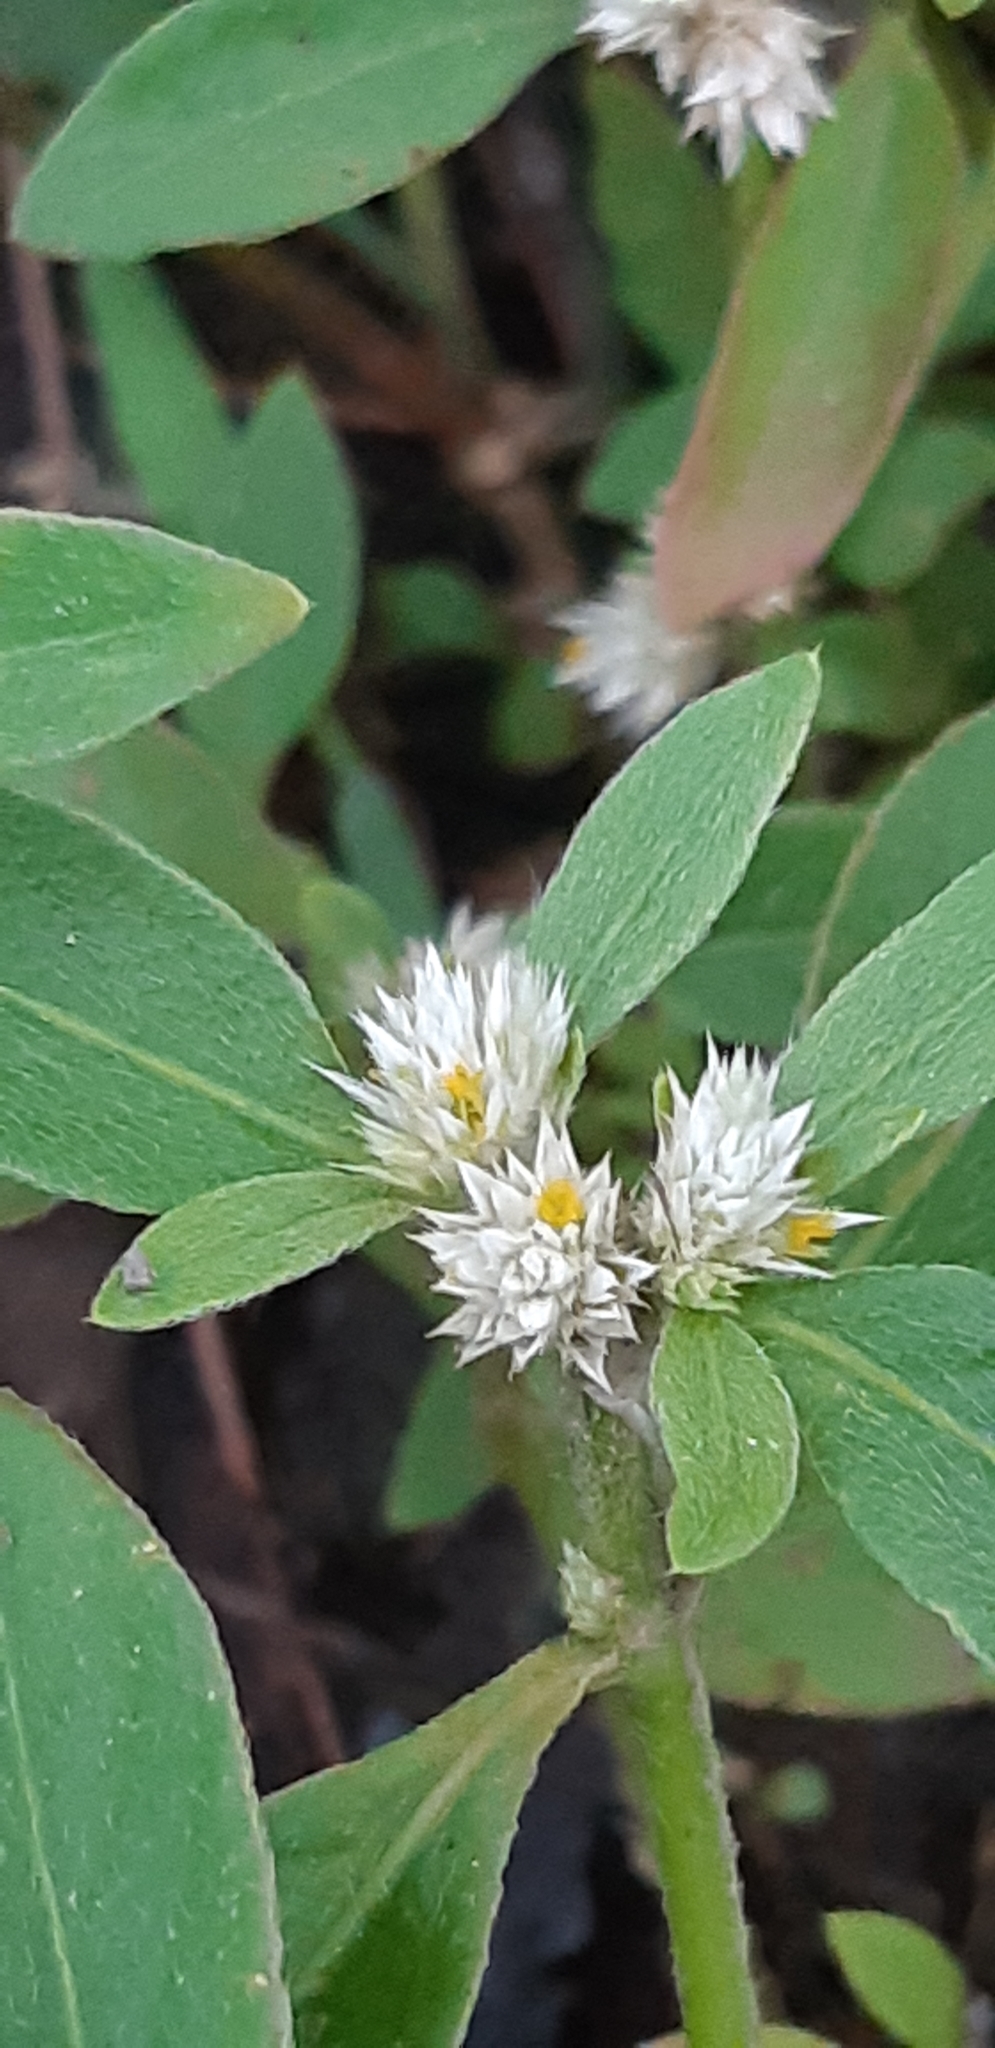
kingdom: Plantae
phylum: Tracheophyta
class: Magnoliopsida
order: Caryophyllales
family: Amaranthaceae
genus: Alternanthera
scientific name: Alternanthera bettzickiana
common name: Calico-plant
